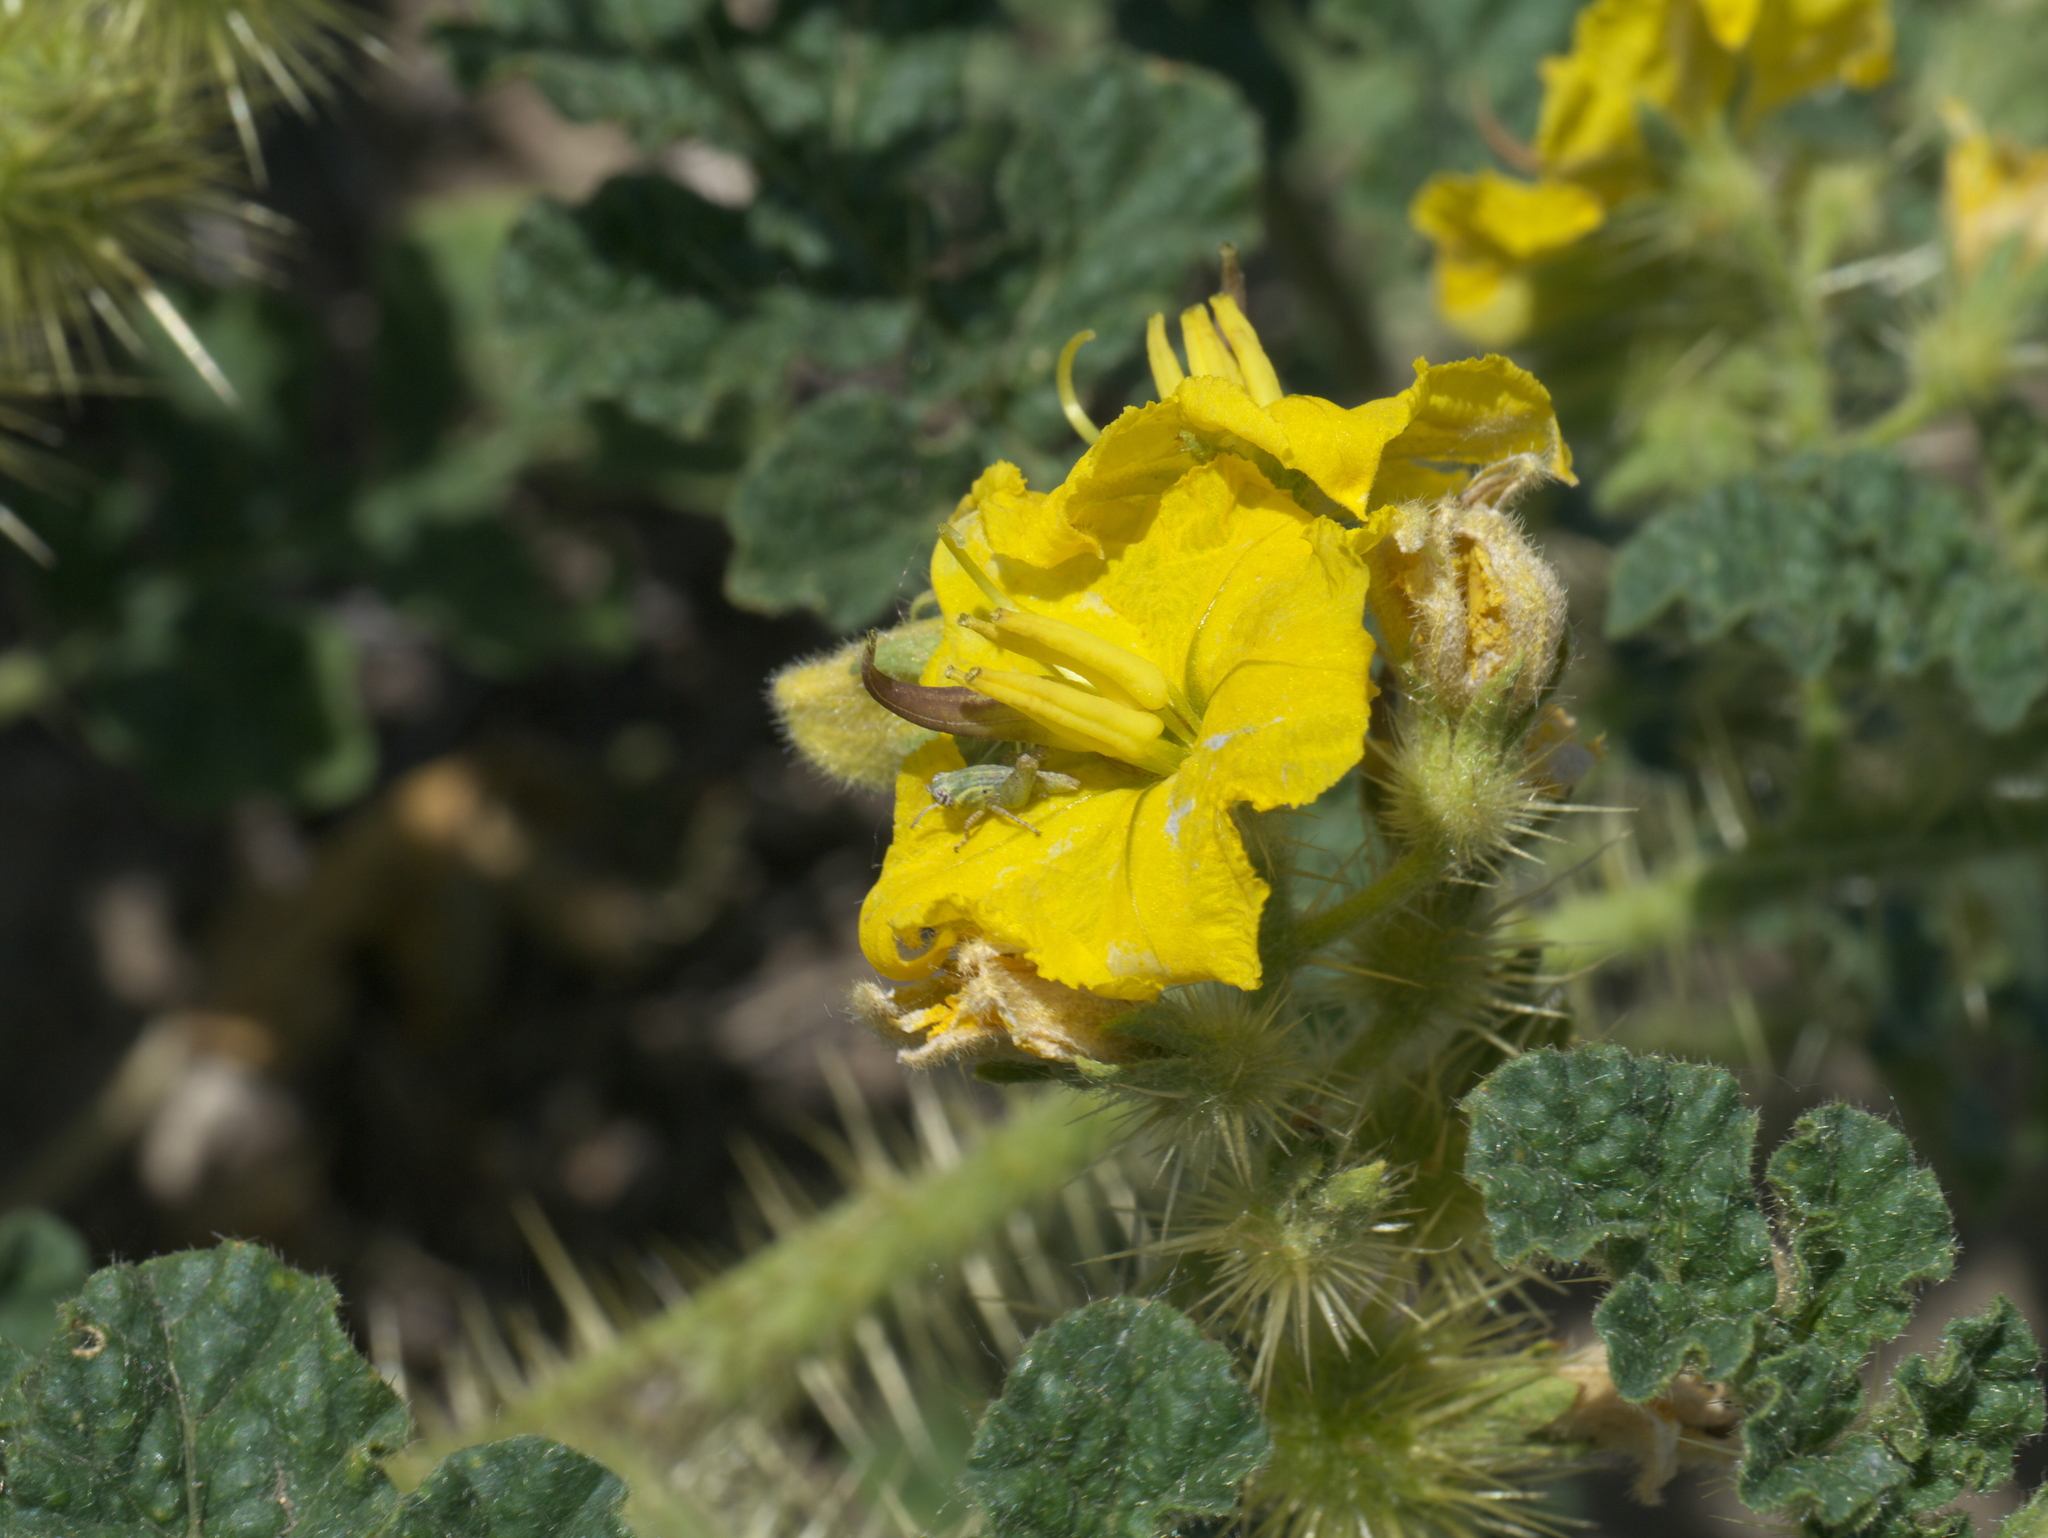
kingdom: Plantae
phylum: Tracheophyta
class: Magnoliopsida
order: Solanales
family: Solanaceae
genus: Solanum
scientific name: Solanum angustifolium
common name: Buffalobur nightshade
